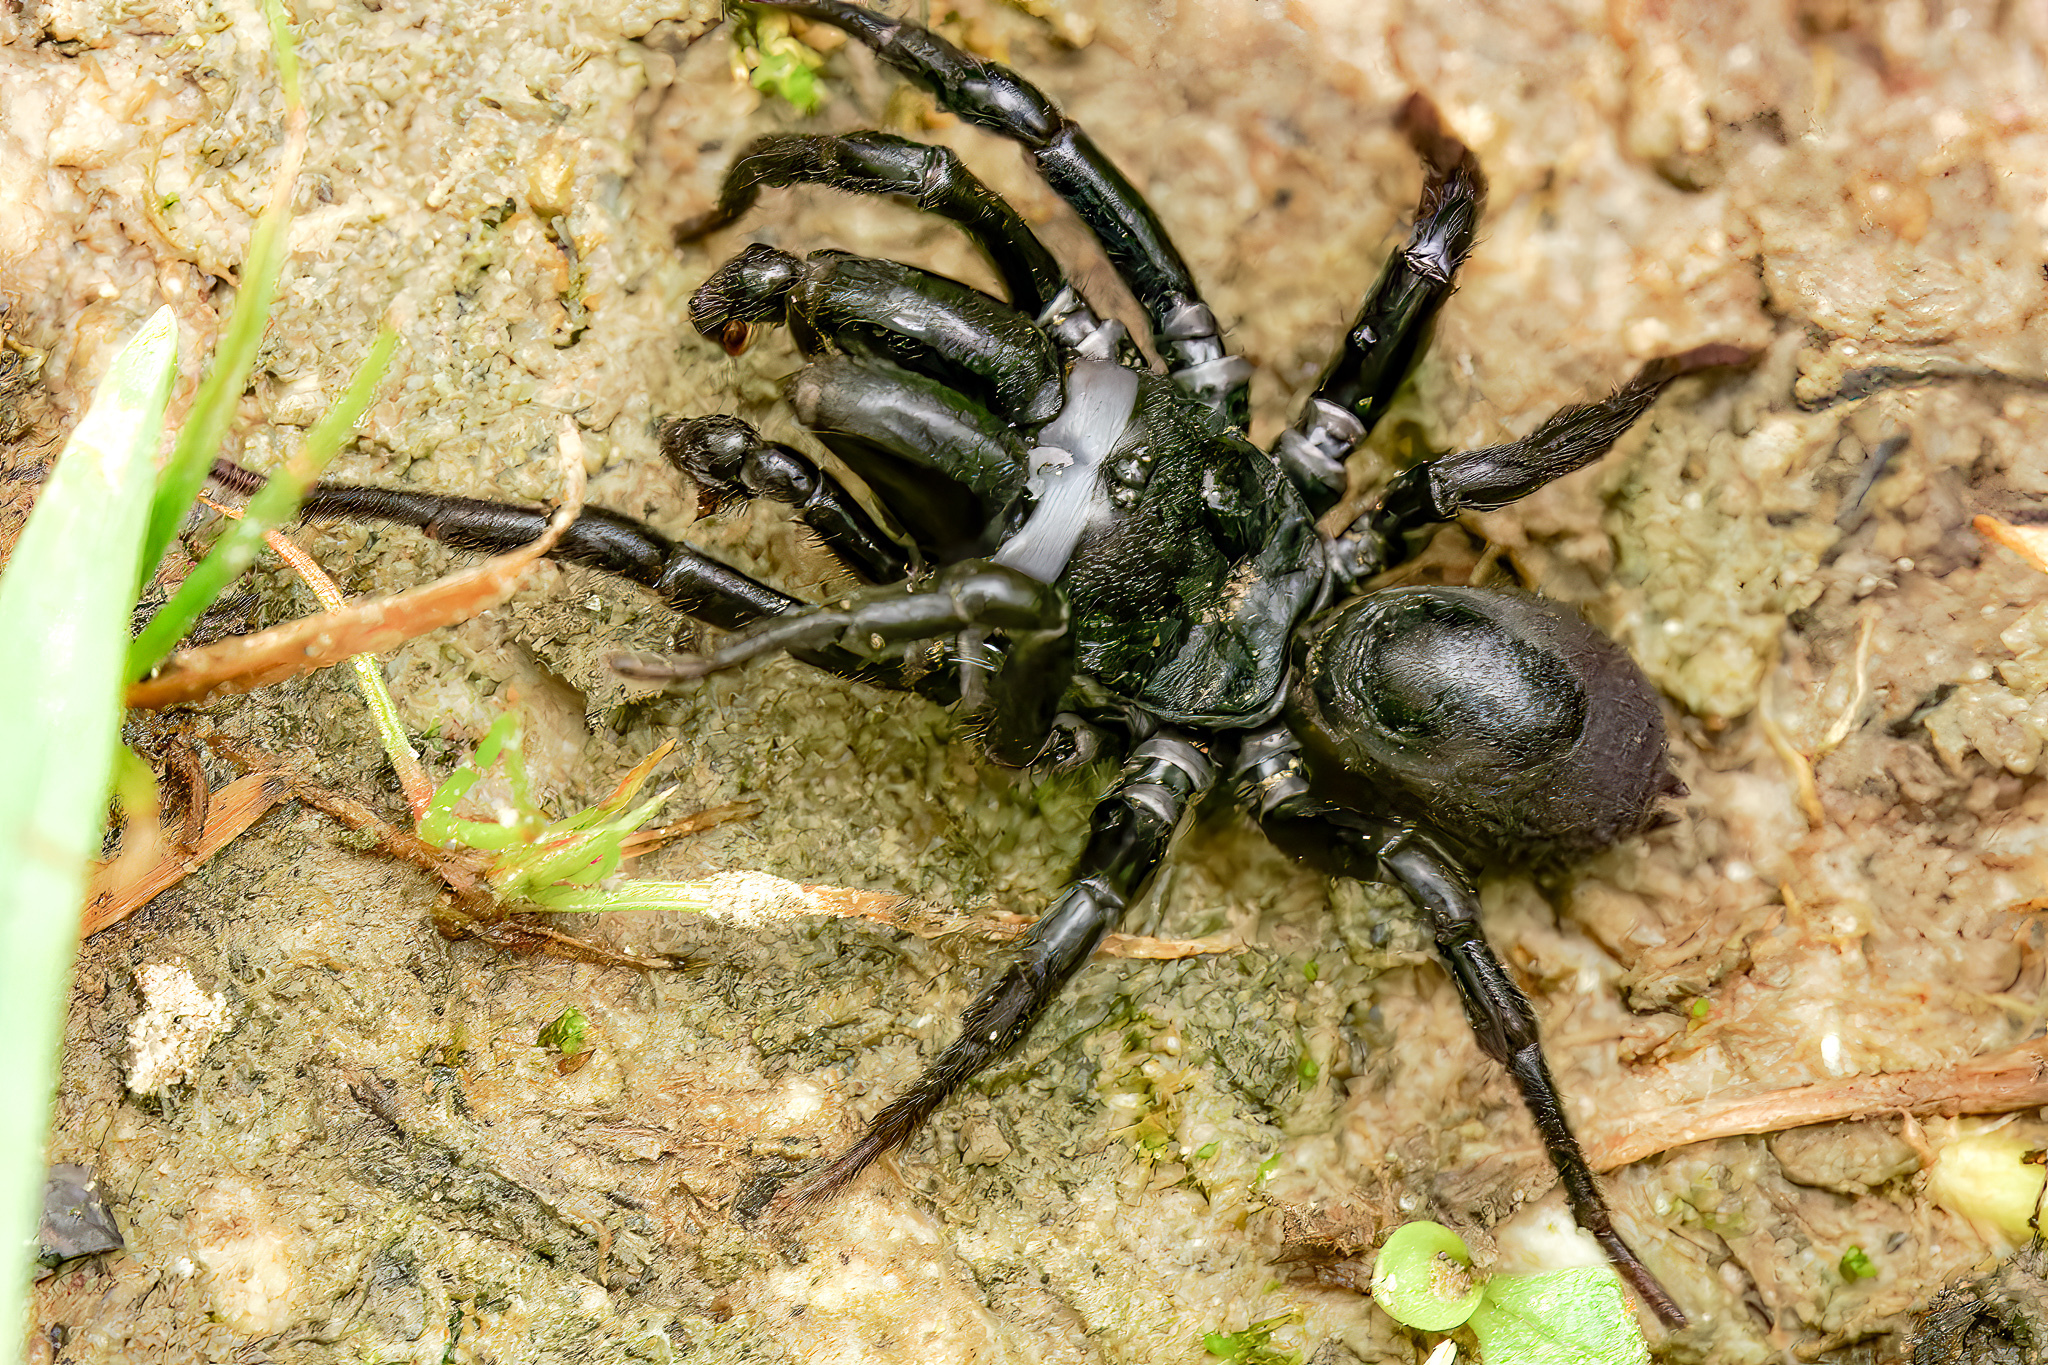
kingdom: Animalia
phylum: Arthropoda
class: Arachnida
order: Araneae
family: Atypidae
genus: Sphodros
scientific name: Sphodros niger
